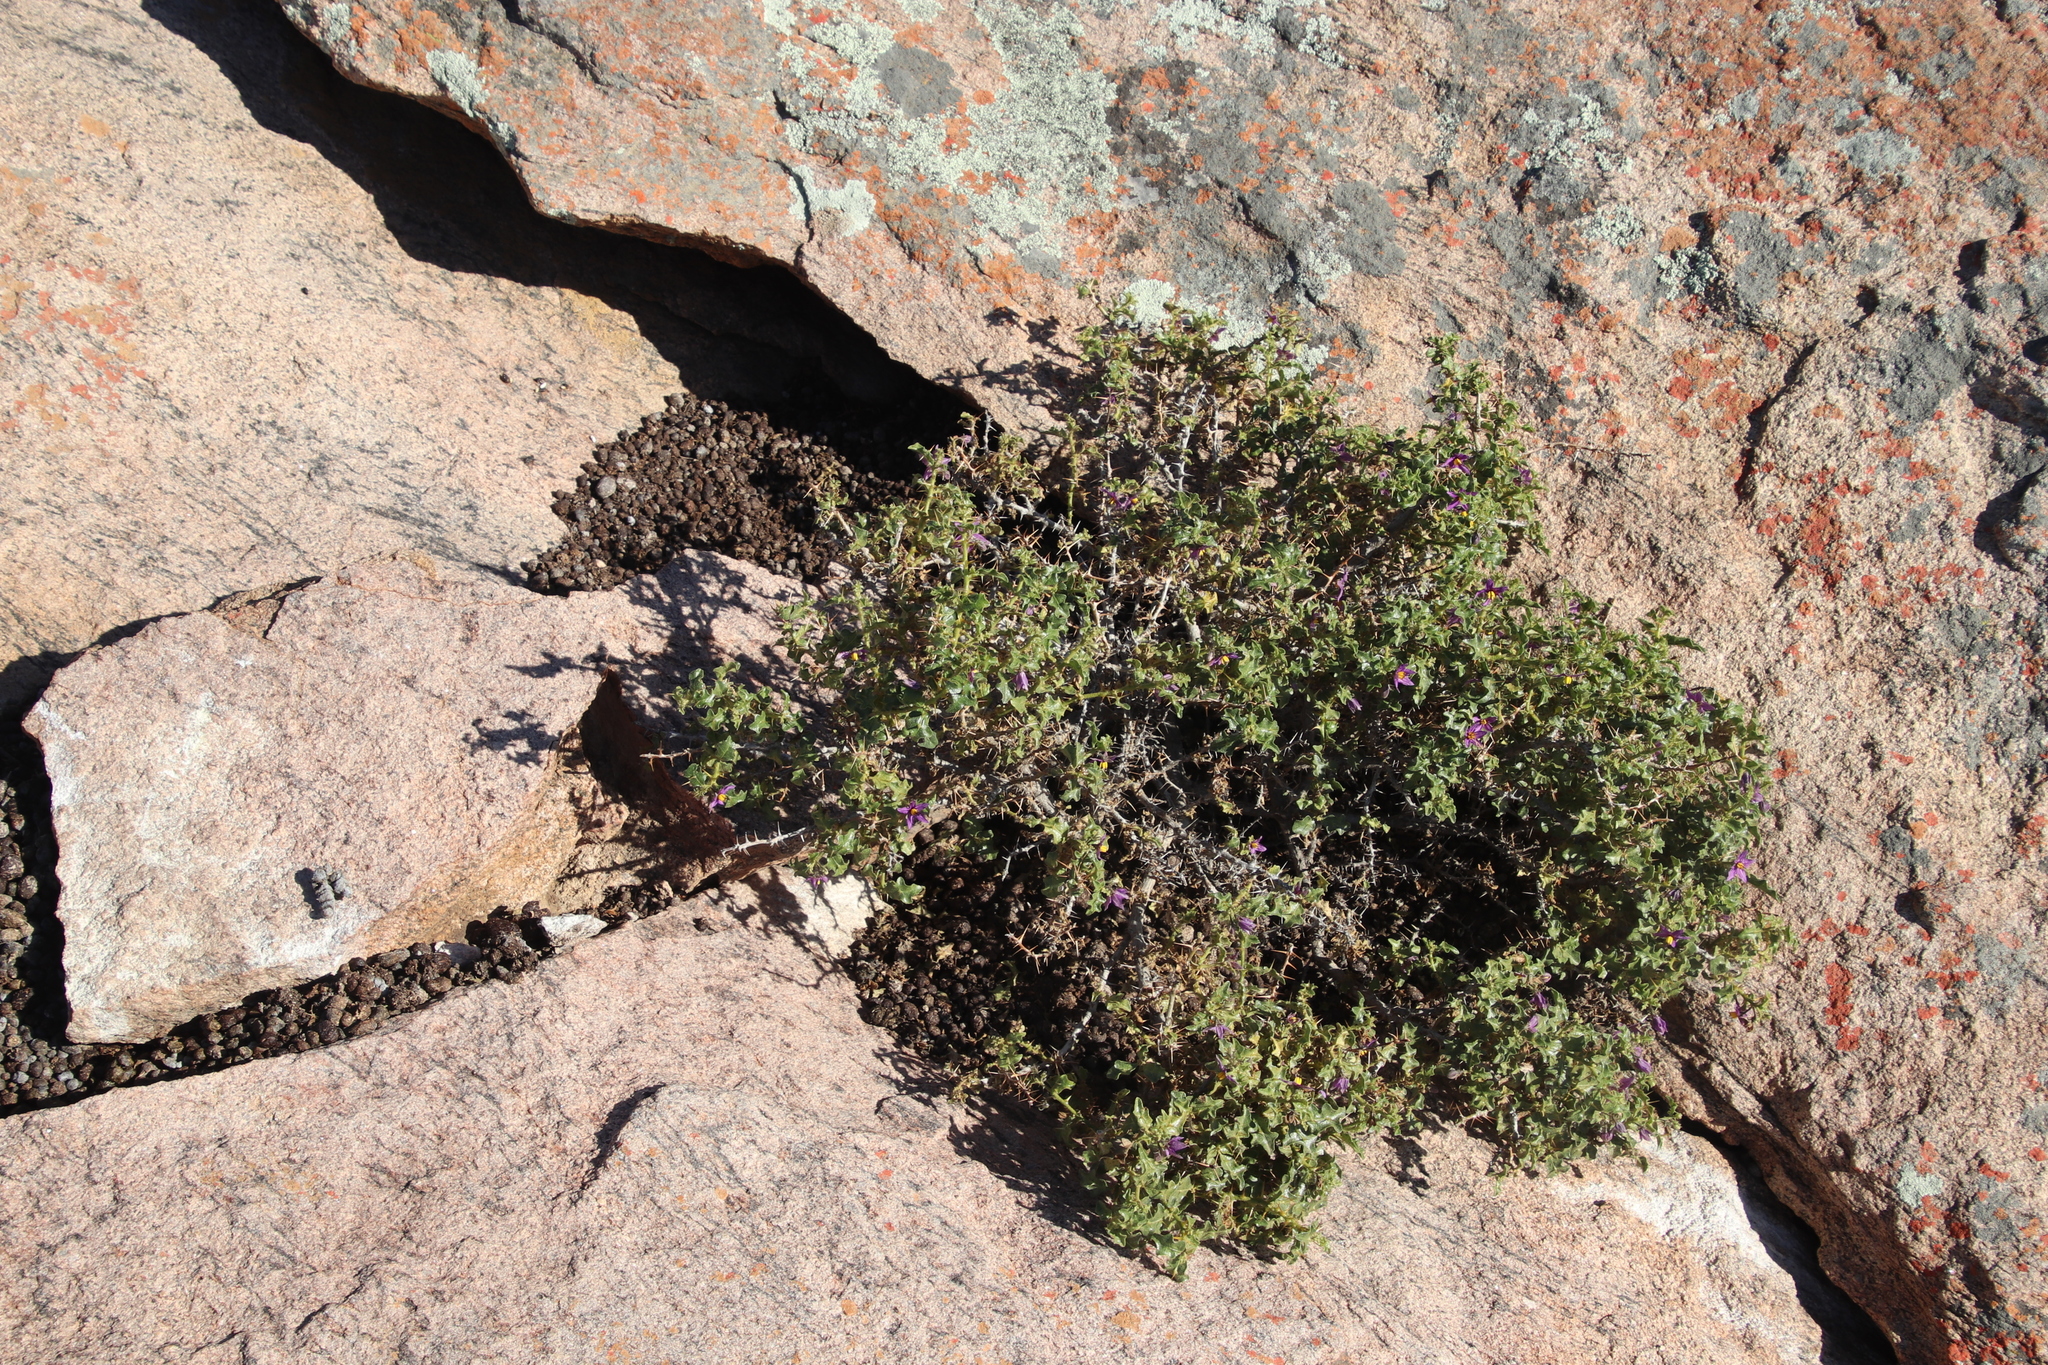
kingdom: Plantae
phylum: Tracheophyta
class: Magnoliopsida
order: Solanales
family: Solanaceae
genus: Solanum
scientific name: Solanum humile
